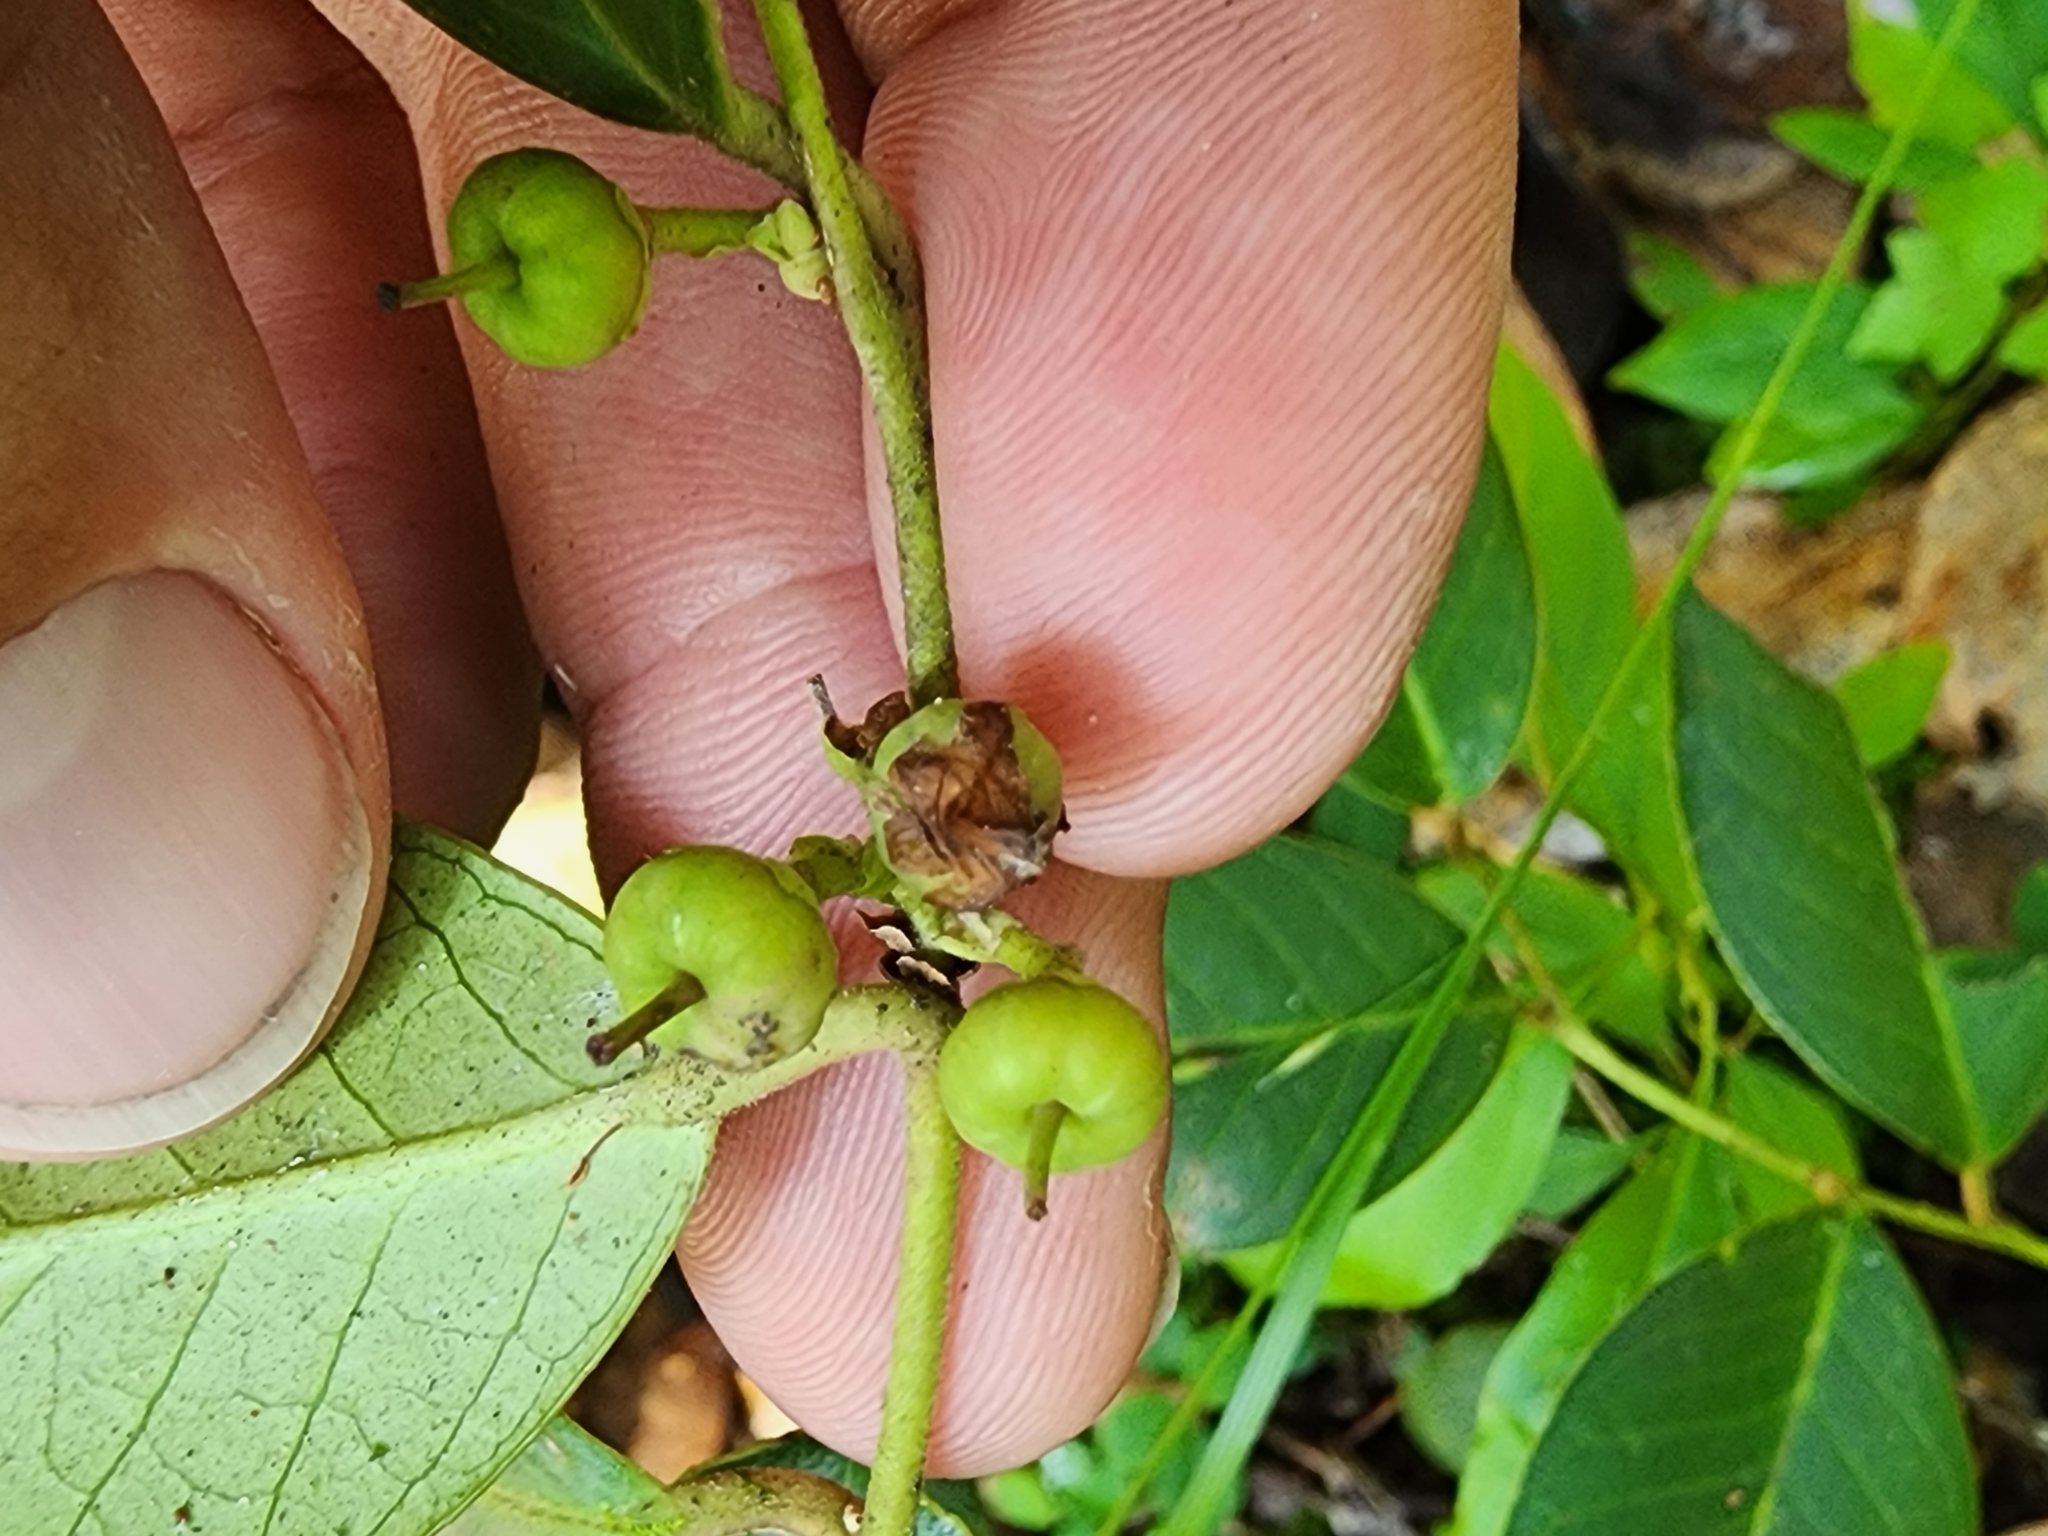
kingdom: Plantae
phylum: Tracheophyta
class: Magnoliopsida
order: Ericales
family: Ericaceae
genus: Leucothoe
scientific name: Leucothoe axillaris
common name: Leucothoe
